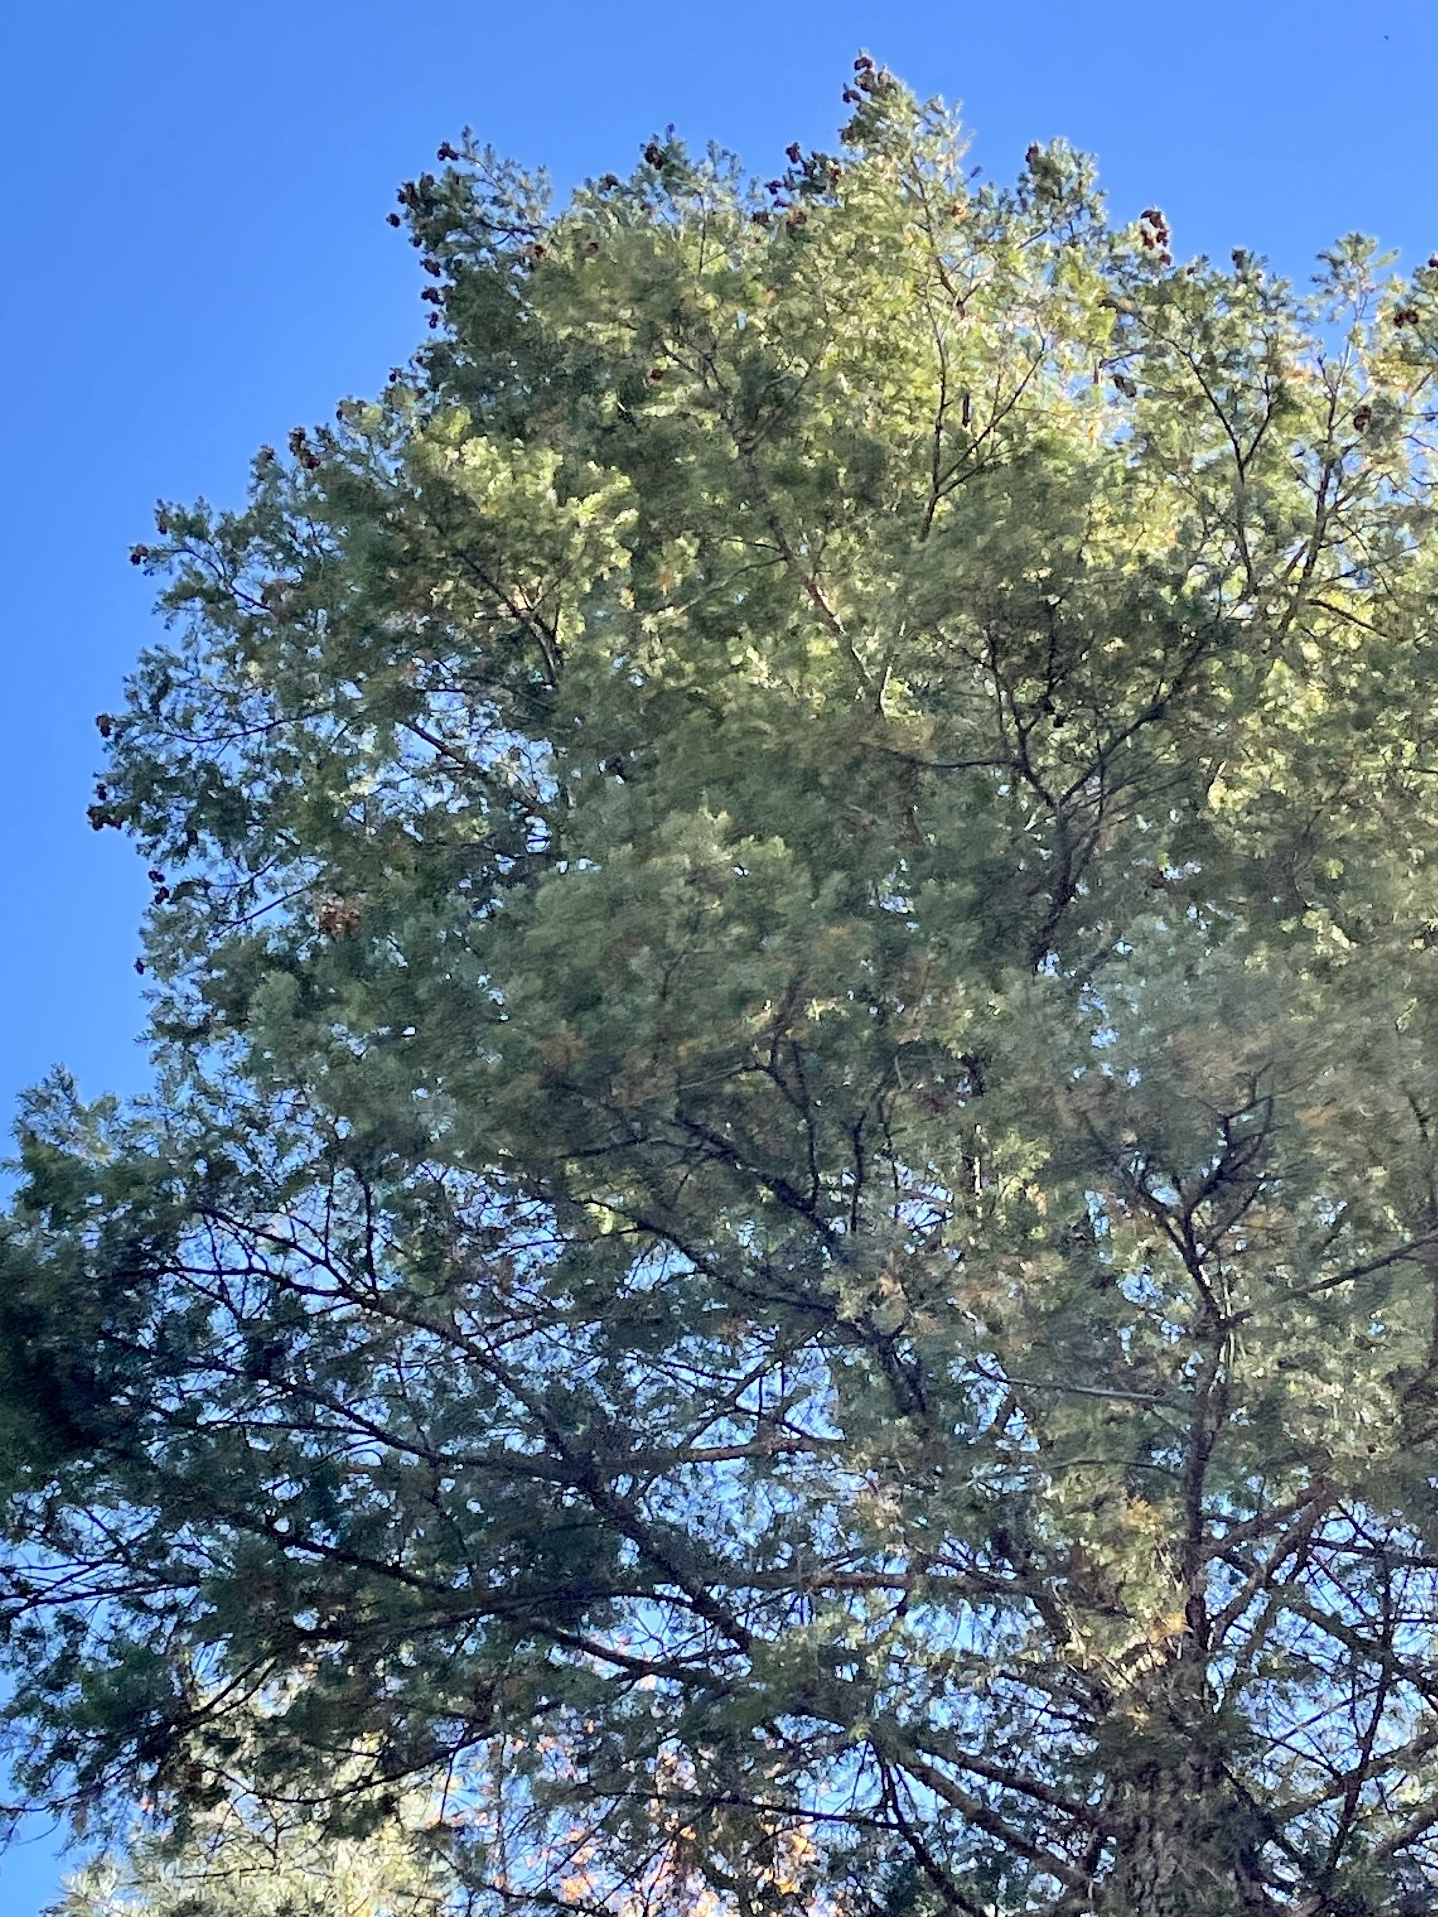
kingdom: Plantae
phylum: Tracheophyta
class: Pinopsida
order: Pinales
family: Pinaceae
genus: Pseudotsuga
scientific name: Pseudotsuga menziesii
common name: Douglas fir
